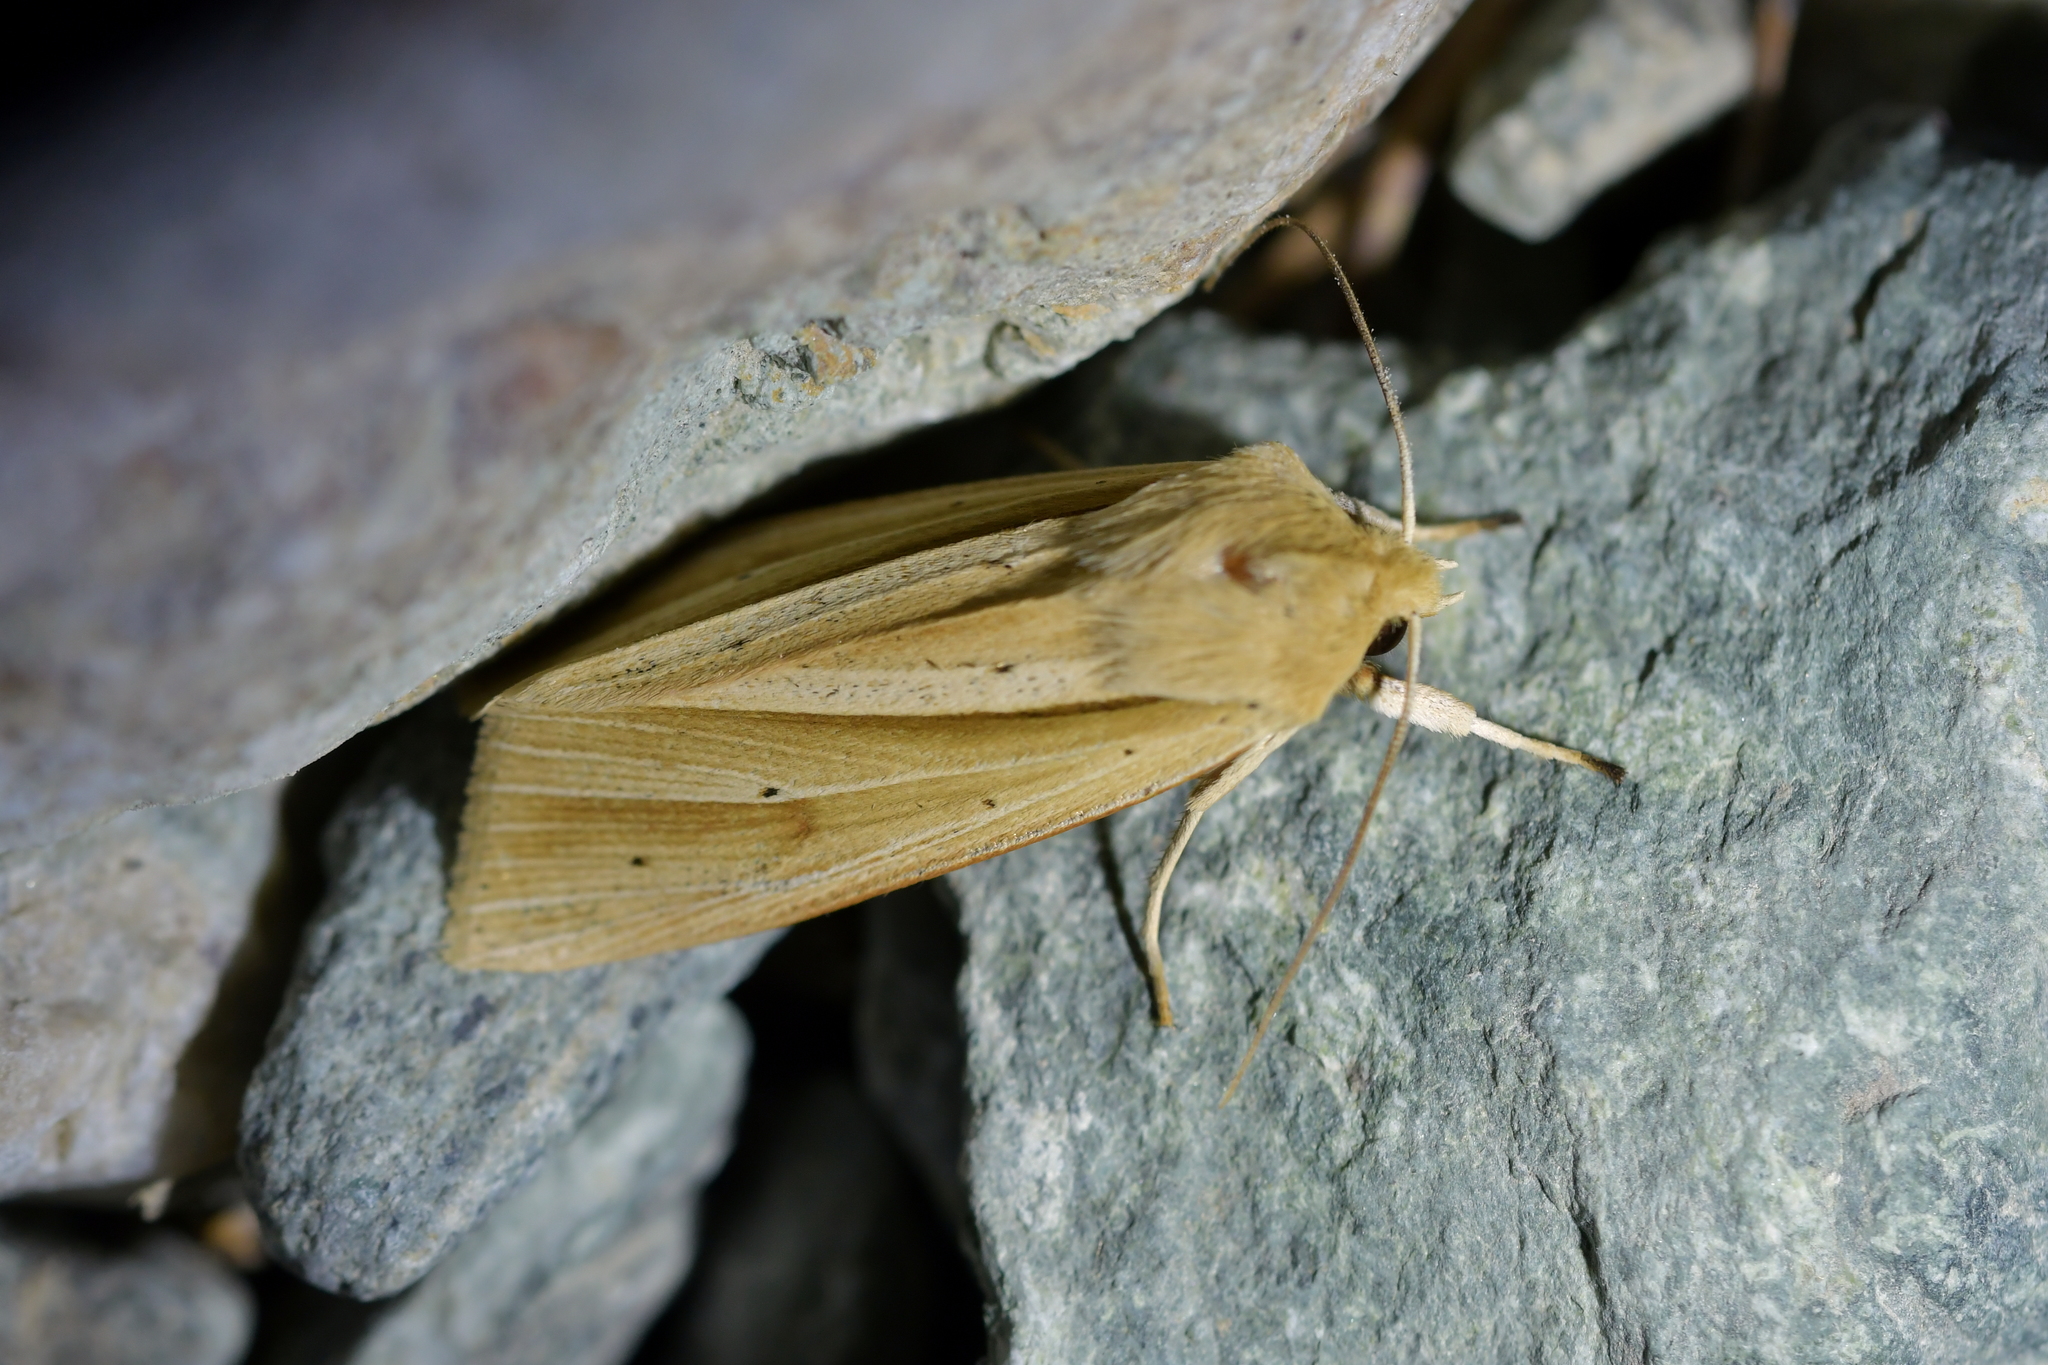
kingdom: Animalia
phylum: Arthropoda
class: Insecta
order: Lepidoptera
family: Noctuidae
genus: Ichneutica
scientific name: Ichneutica sulcana
